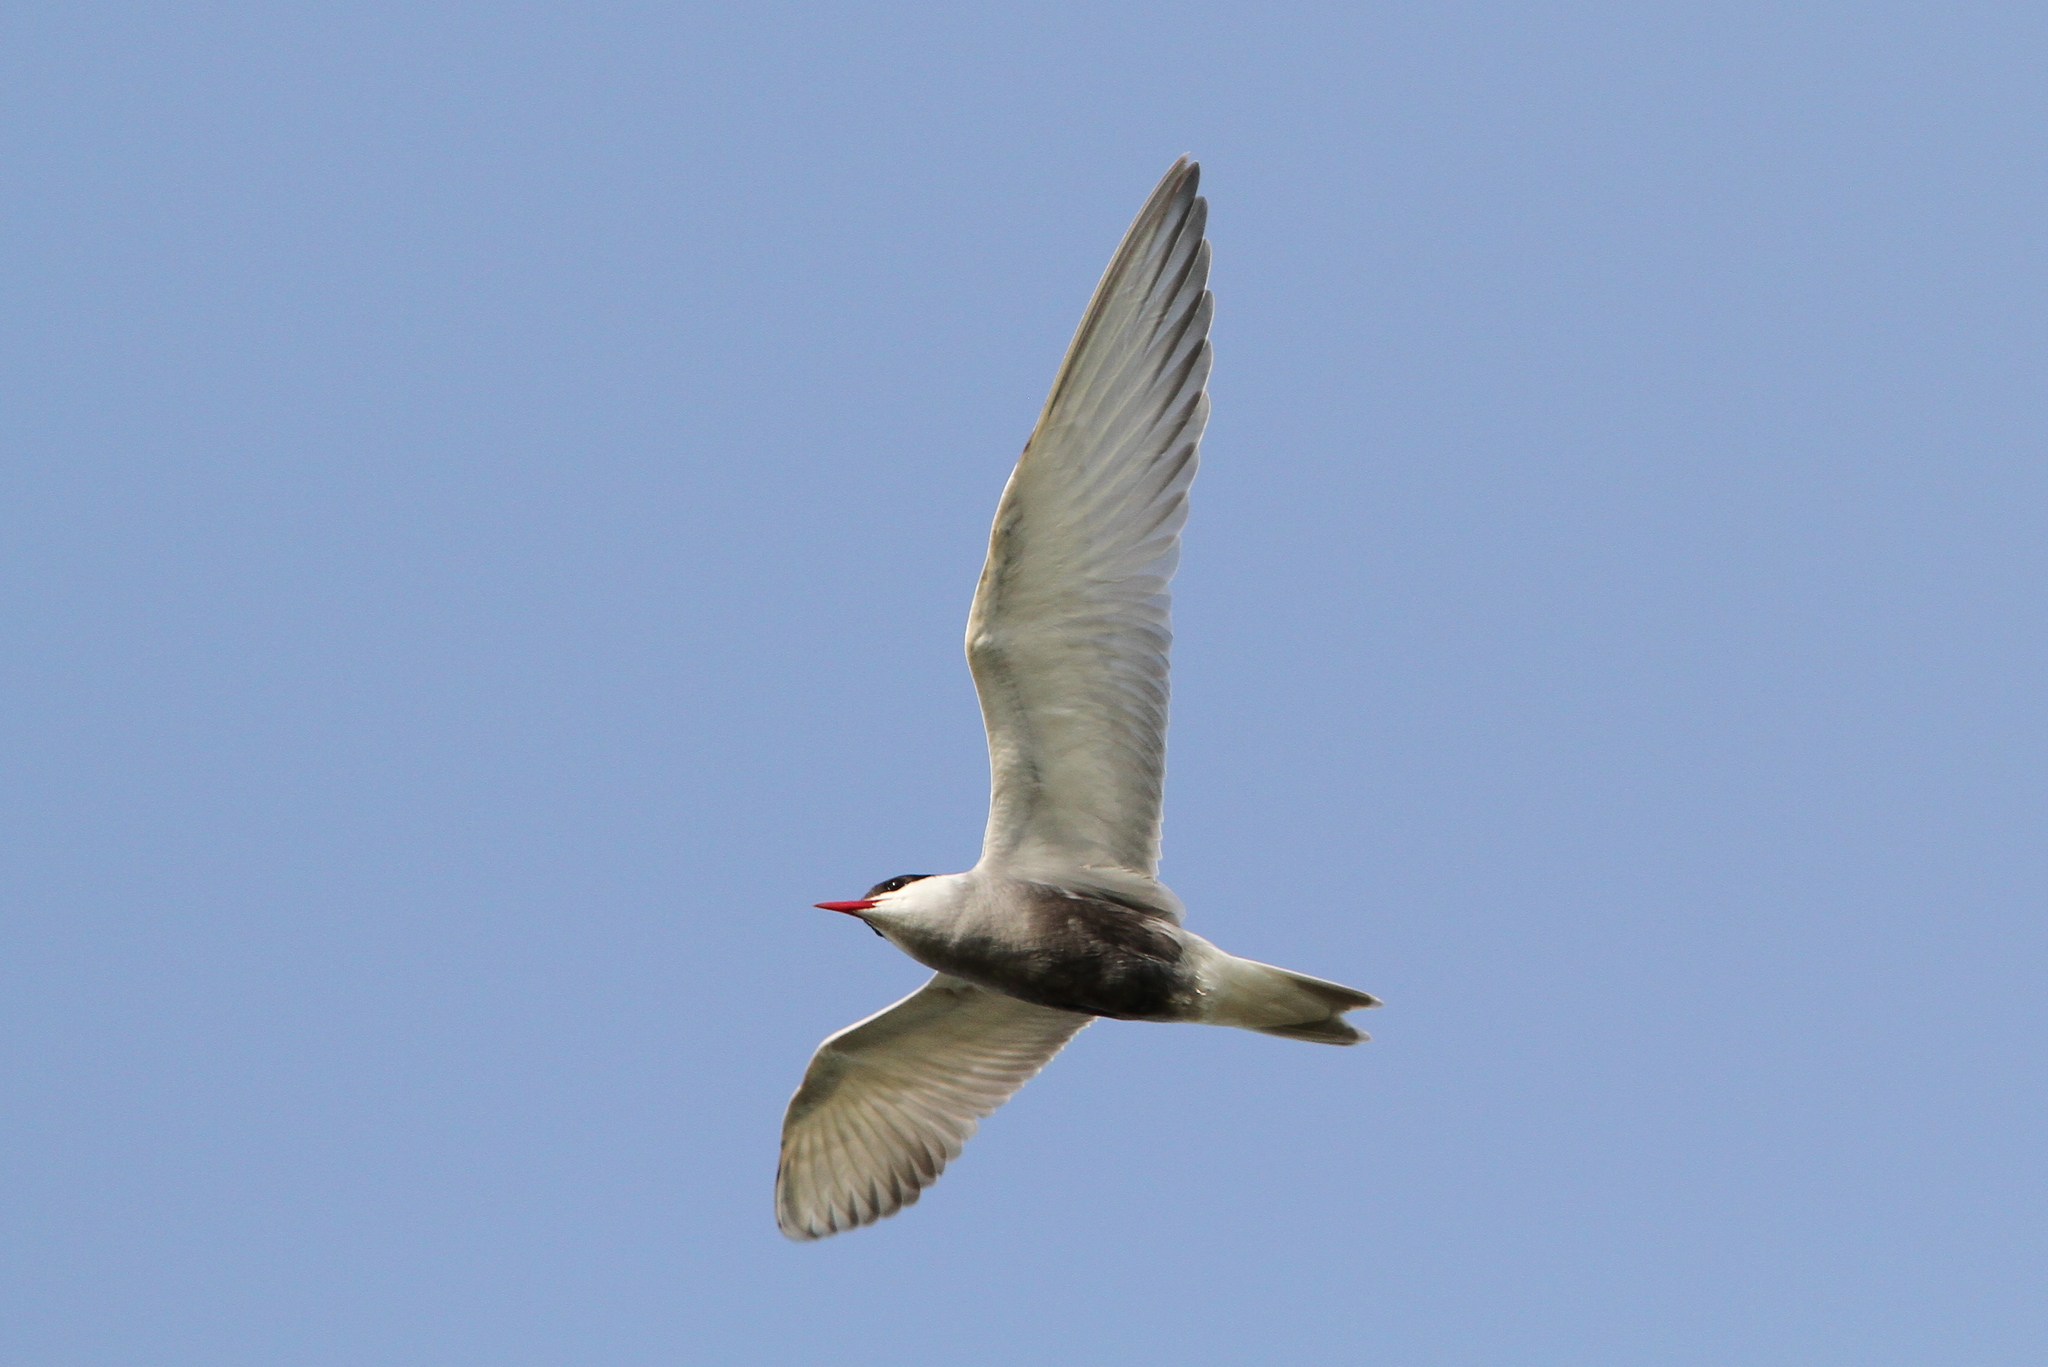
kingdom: Animalia
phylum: Chordata
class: Aves
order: Charadriiformes
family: Laridae
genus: Chlidonias
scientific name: Chlidonias hybrida
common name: Whiskered tern
